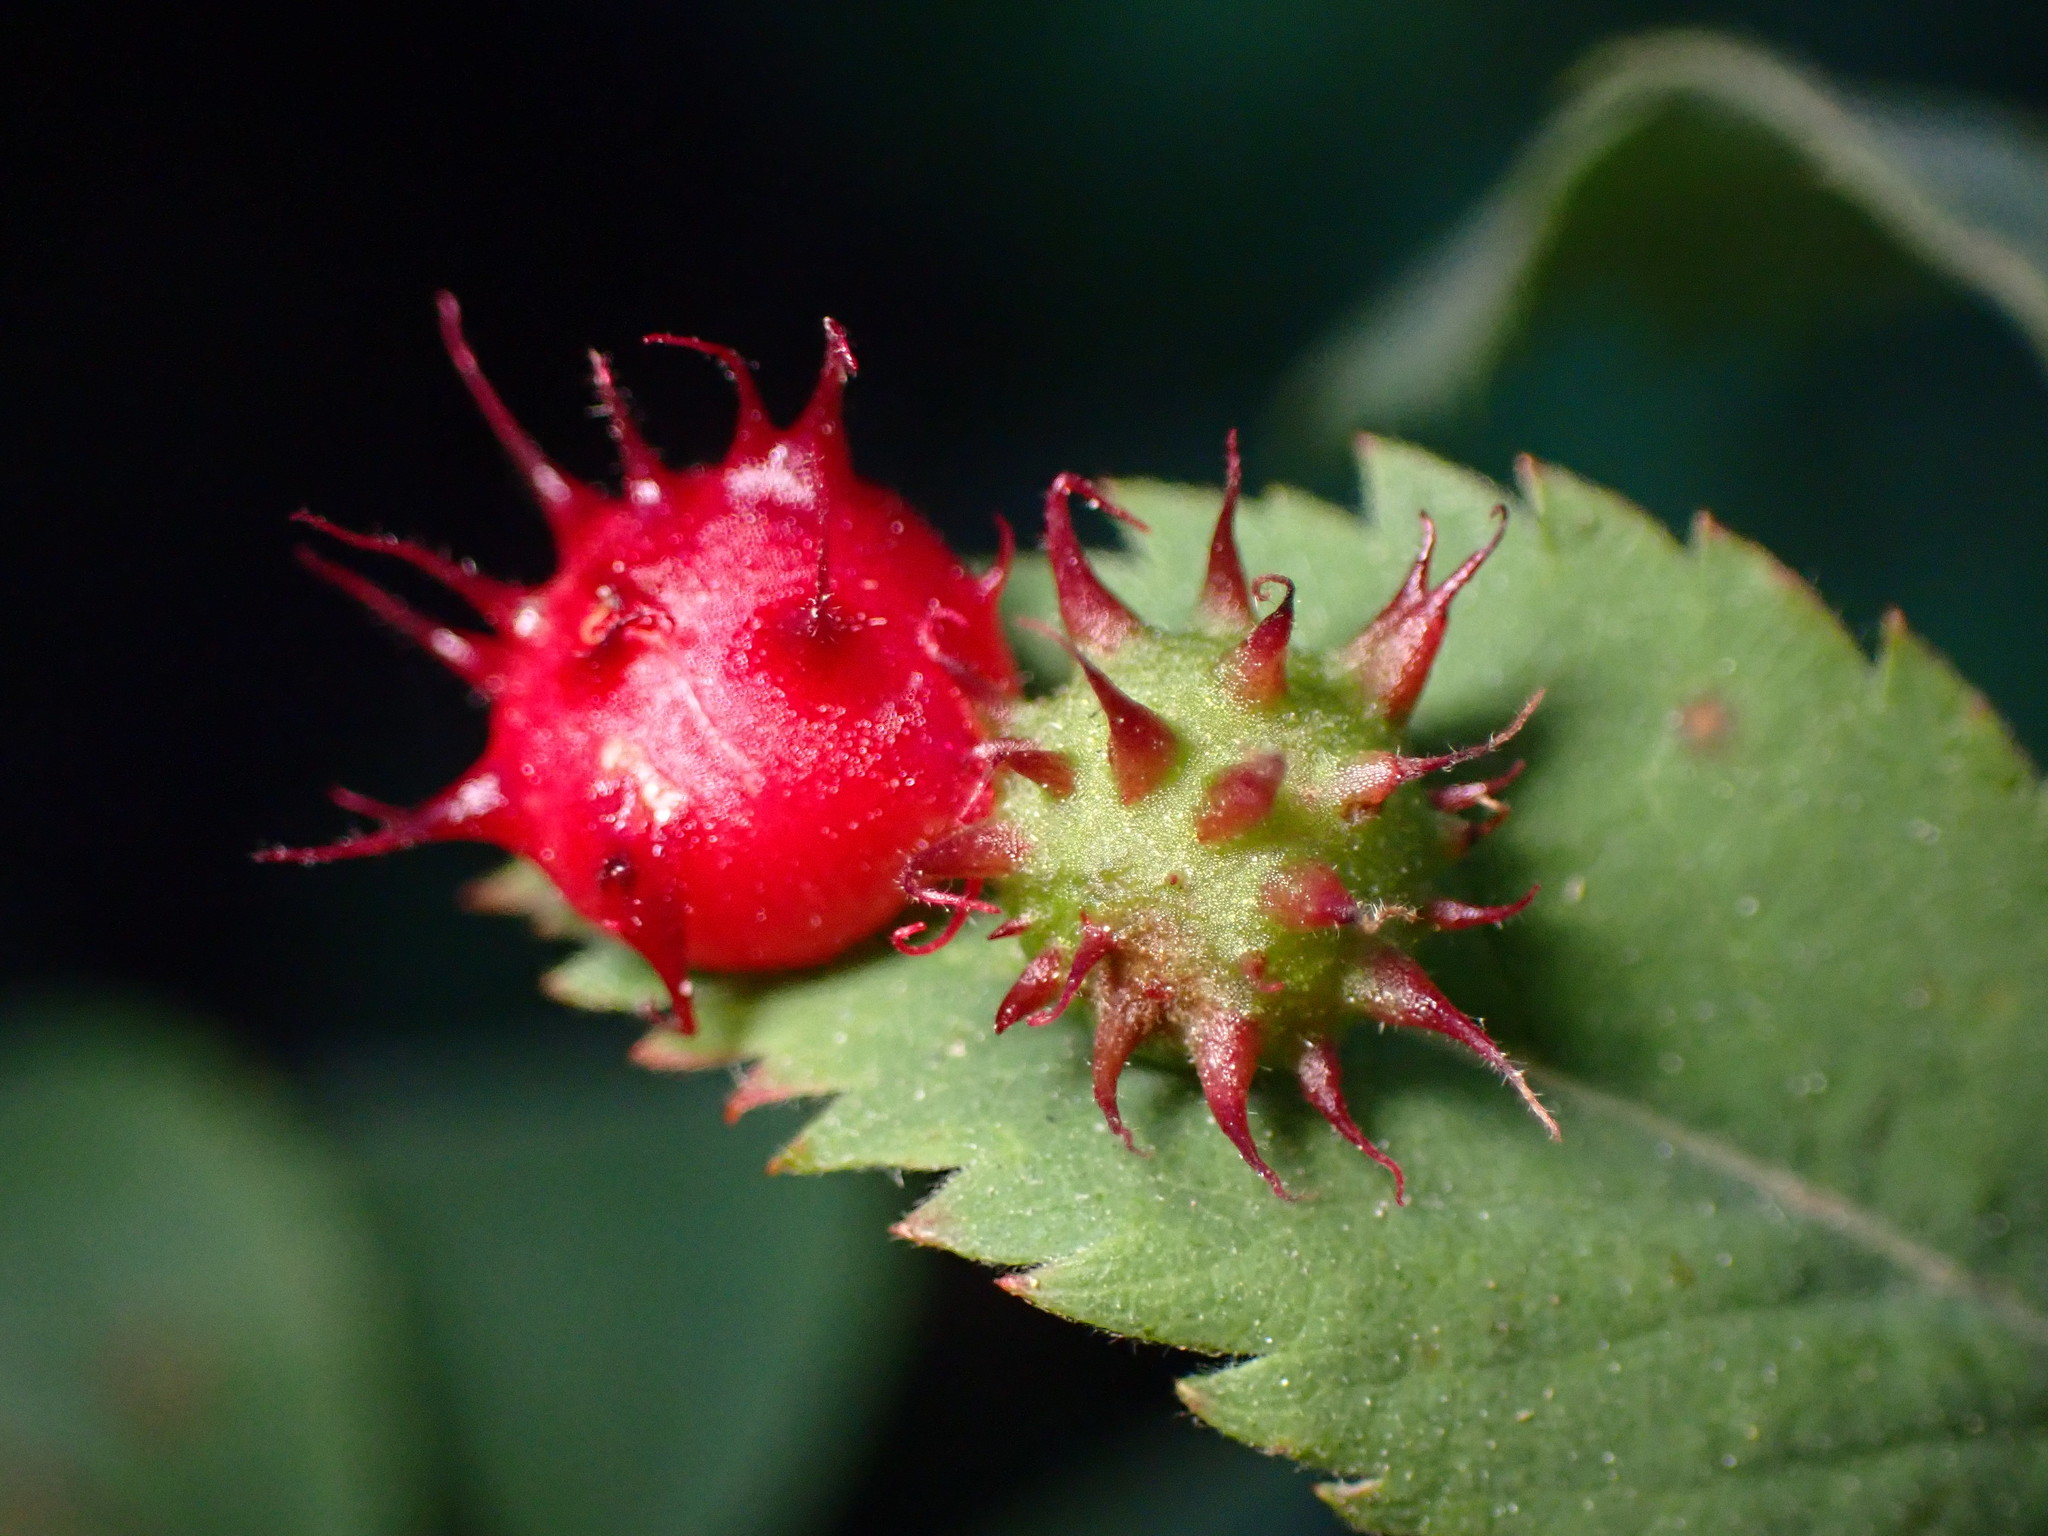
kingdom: Animalia
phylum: Arthropoda
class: Insecta
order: Hymenoptera
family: Cynipidae
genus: Diplolepis
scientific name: Diplolepis polita
